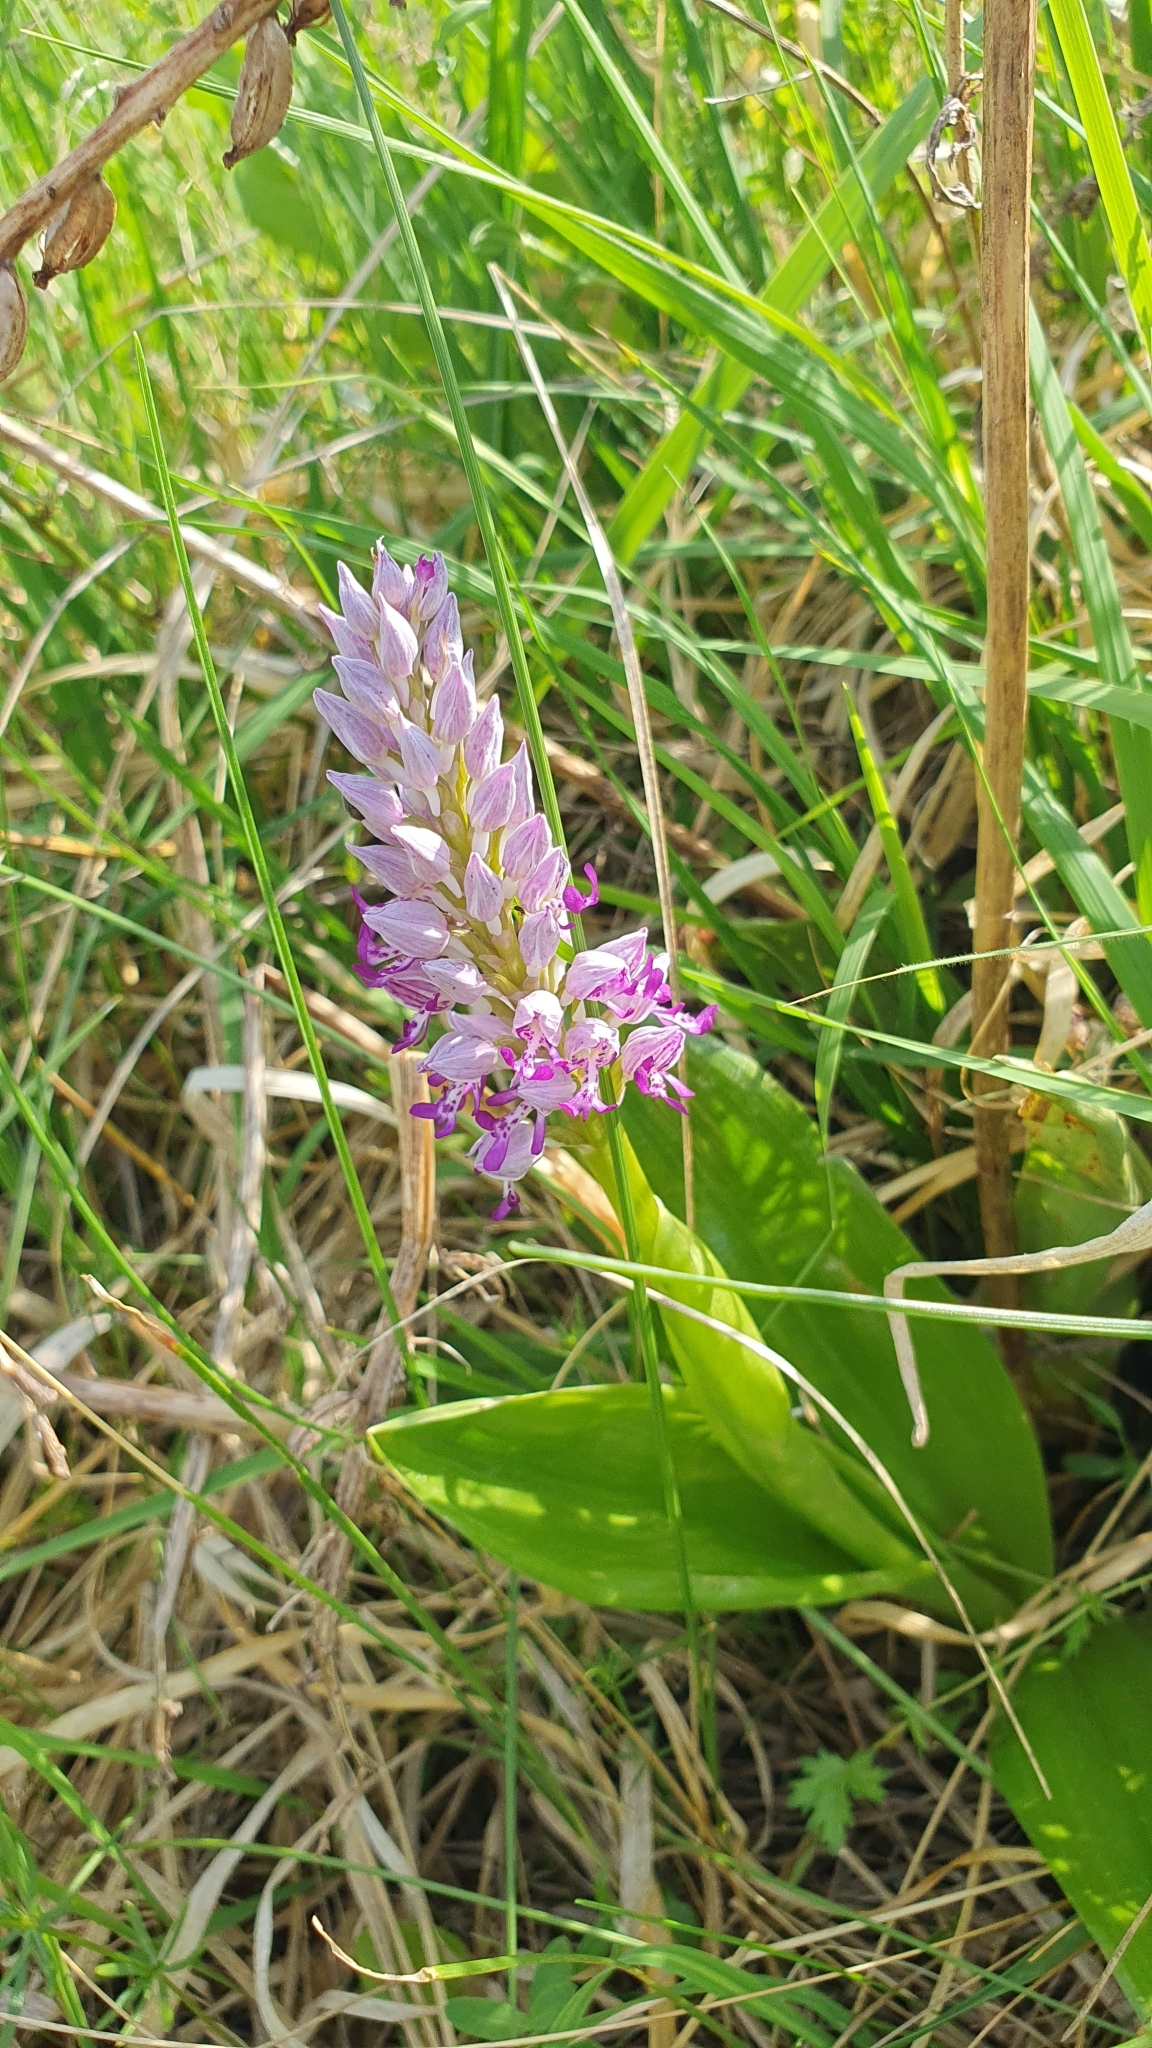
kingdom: Plantae
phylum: Tracheophyta
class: Liliopsida
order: Asparagales
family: Orchidaceae
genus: Orchis
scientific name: Orchis militaris
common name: Military orchid
